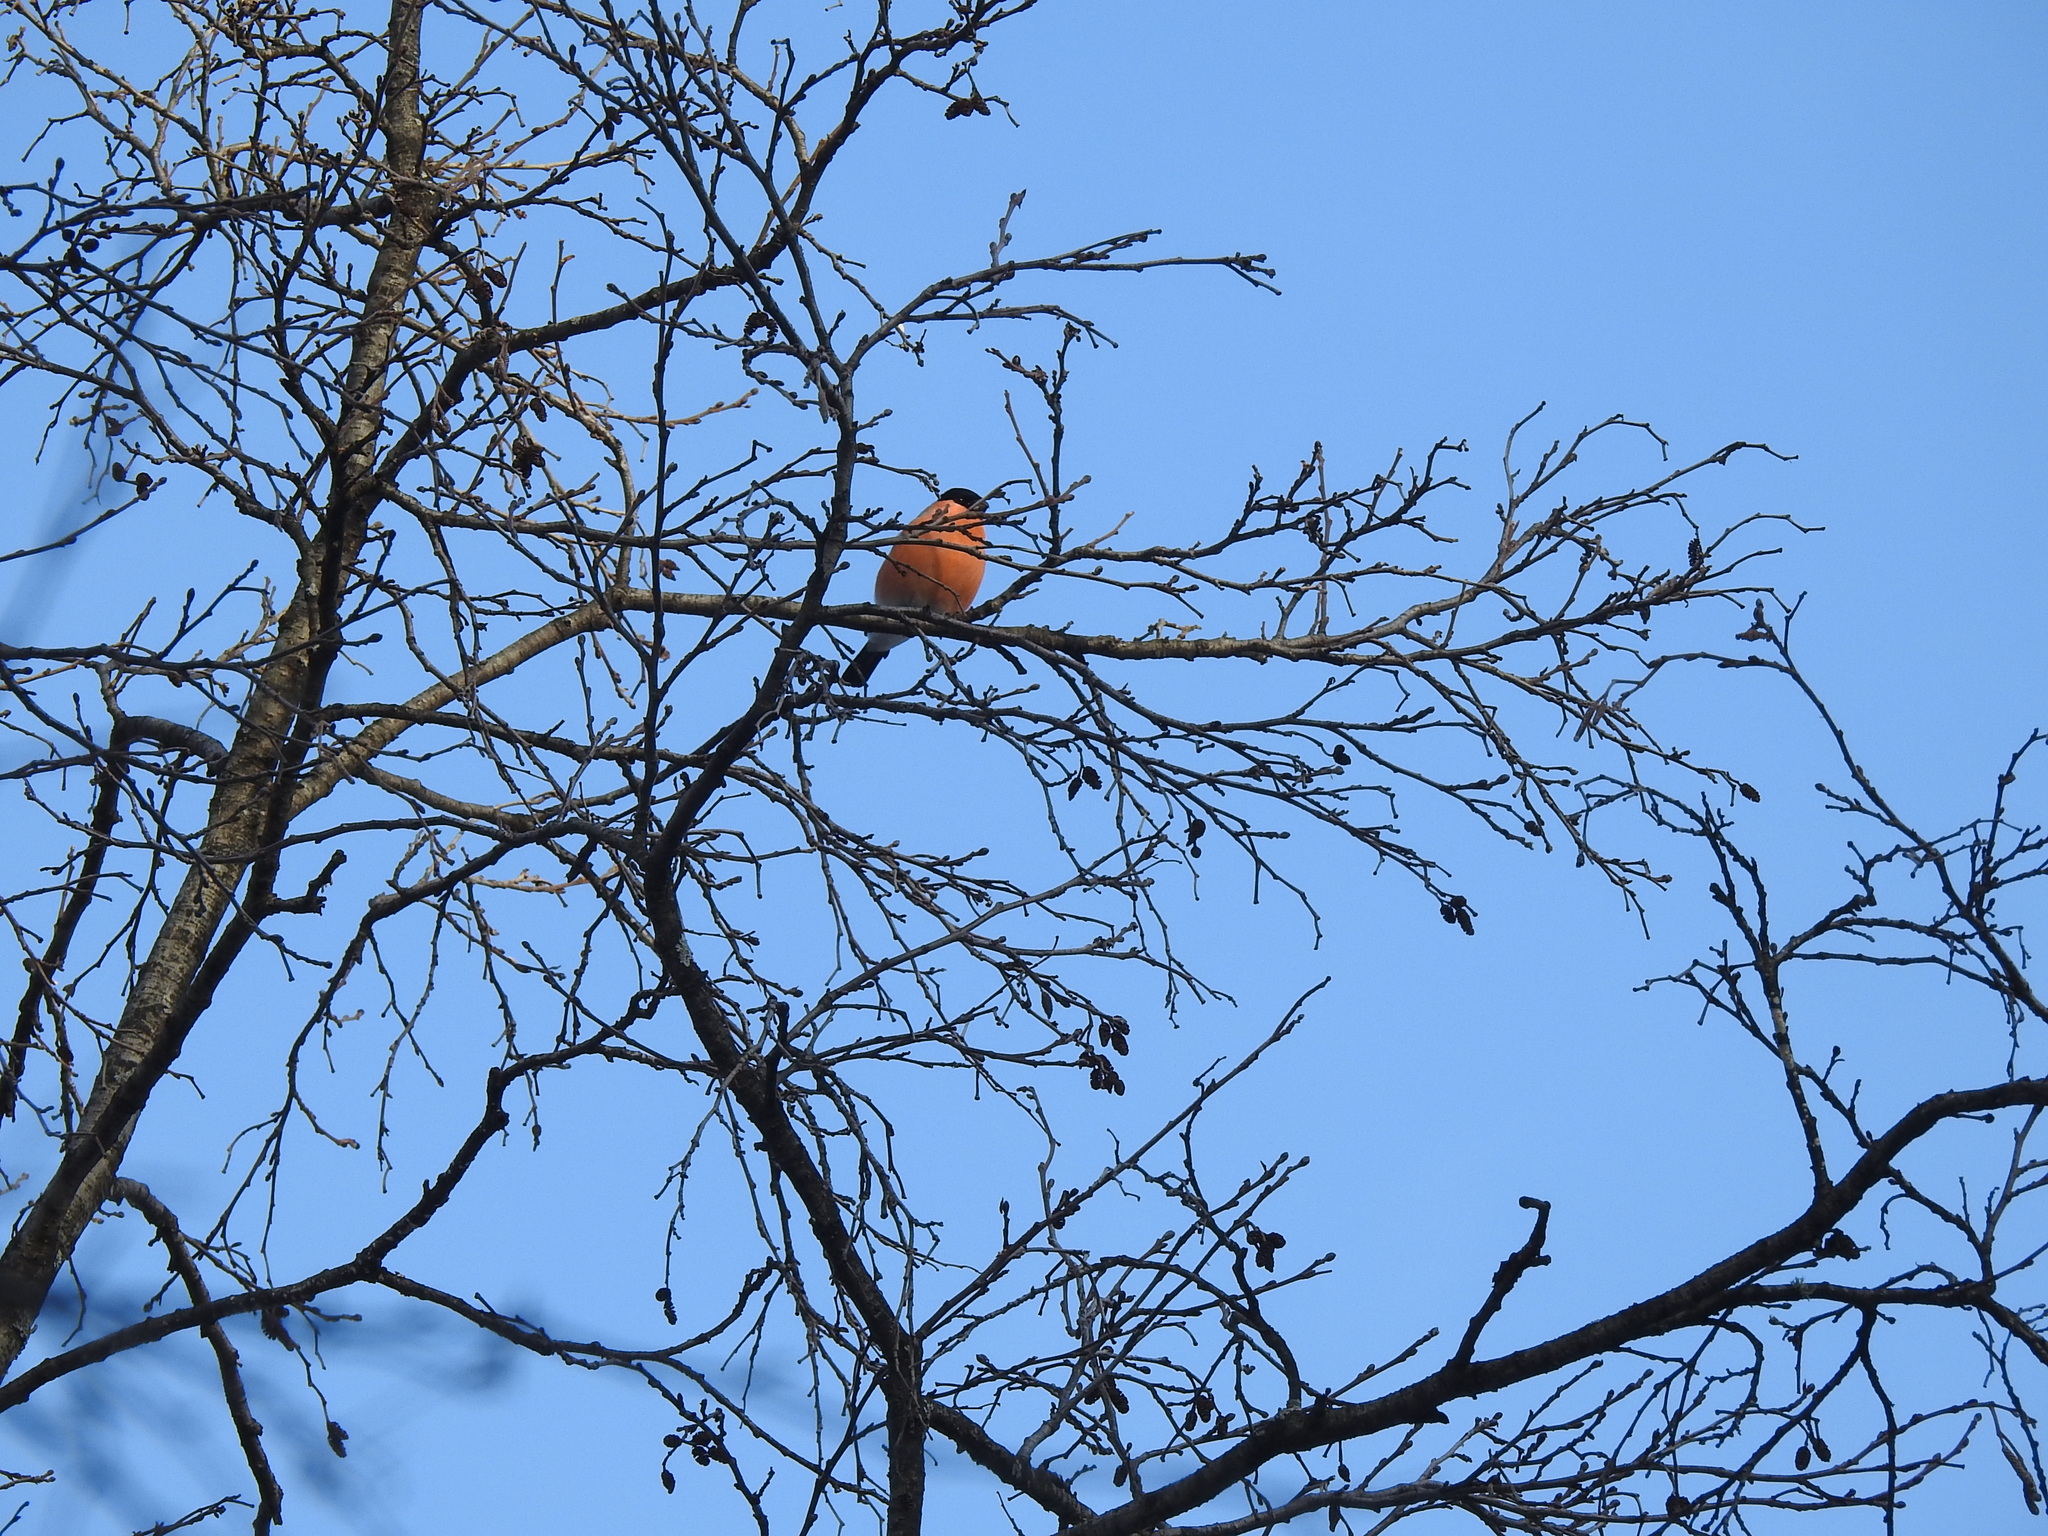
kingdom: Animalia
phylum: Chordata
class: Aves
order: Passeriformes
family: Fringillidae
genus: Pyrrhula
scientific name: Pyrrhula pyrrhula
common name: Eurasian bullfinch
